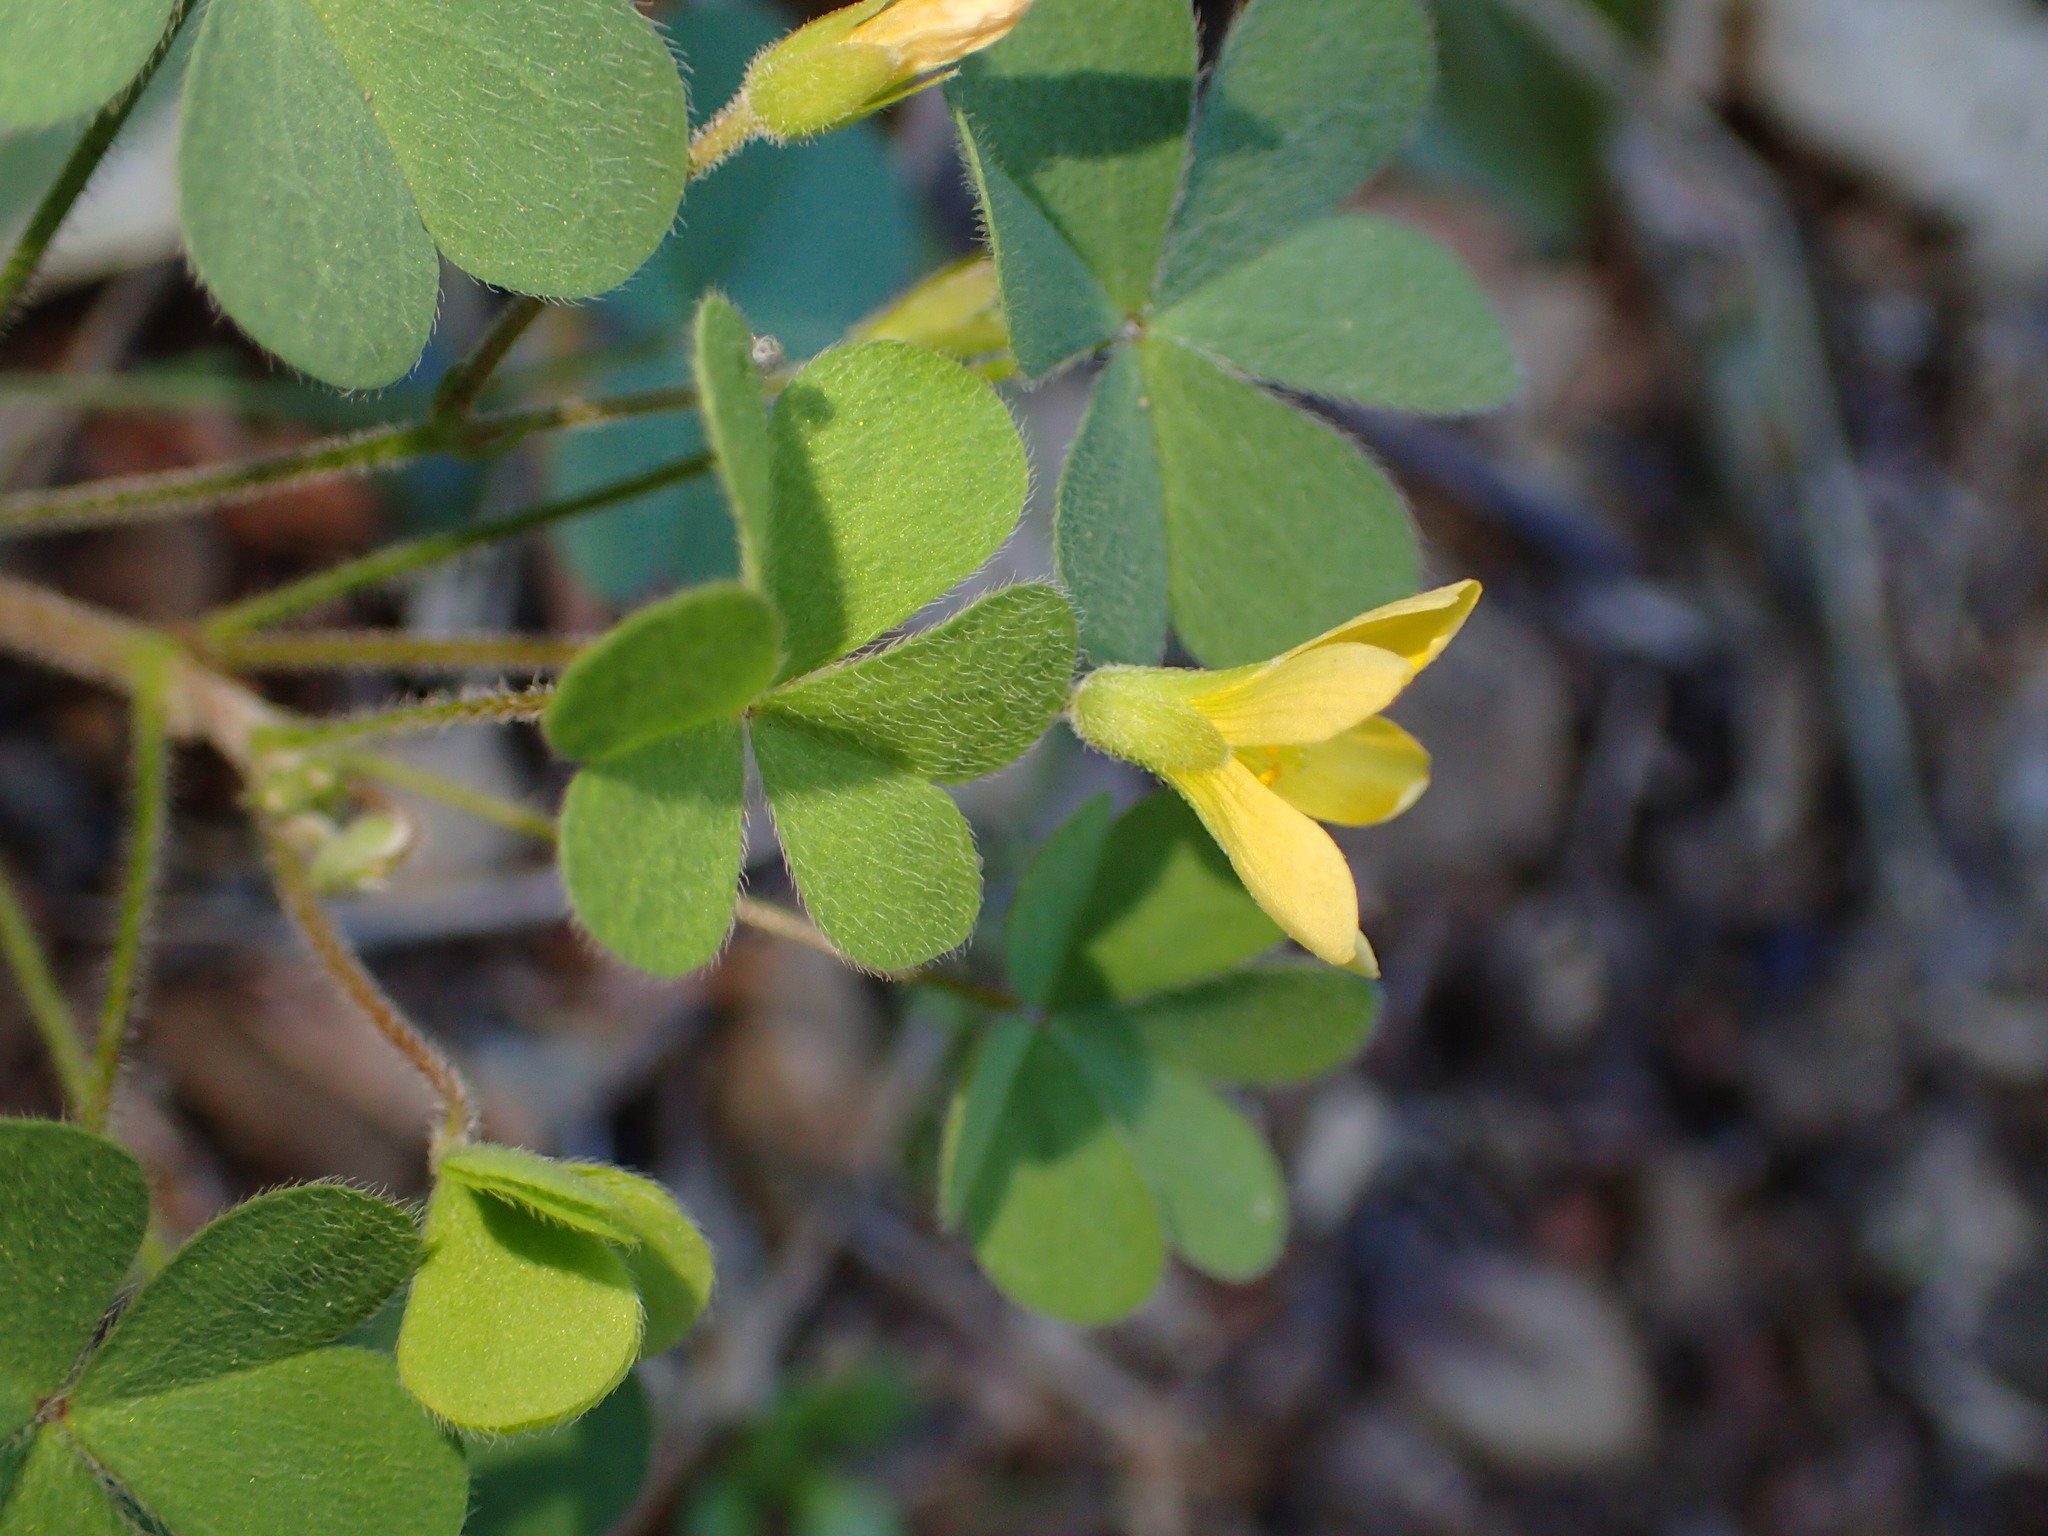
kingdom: Plantae
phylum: Tracheophyta
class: Magnoliopsida
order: Oxalidales
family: Oxalidaceae
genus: Oxalis
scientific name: Oxalis pilosa
